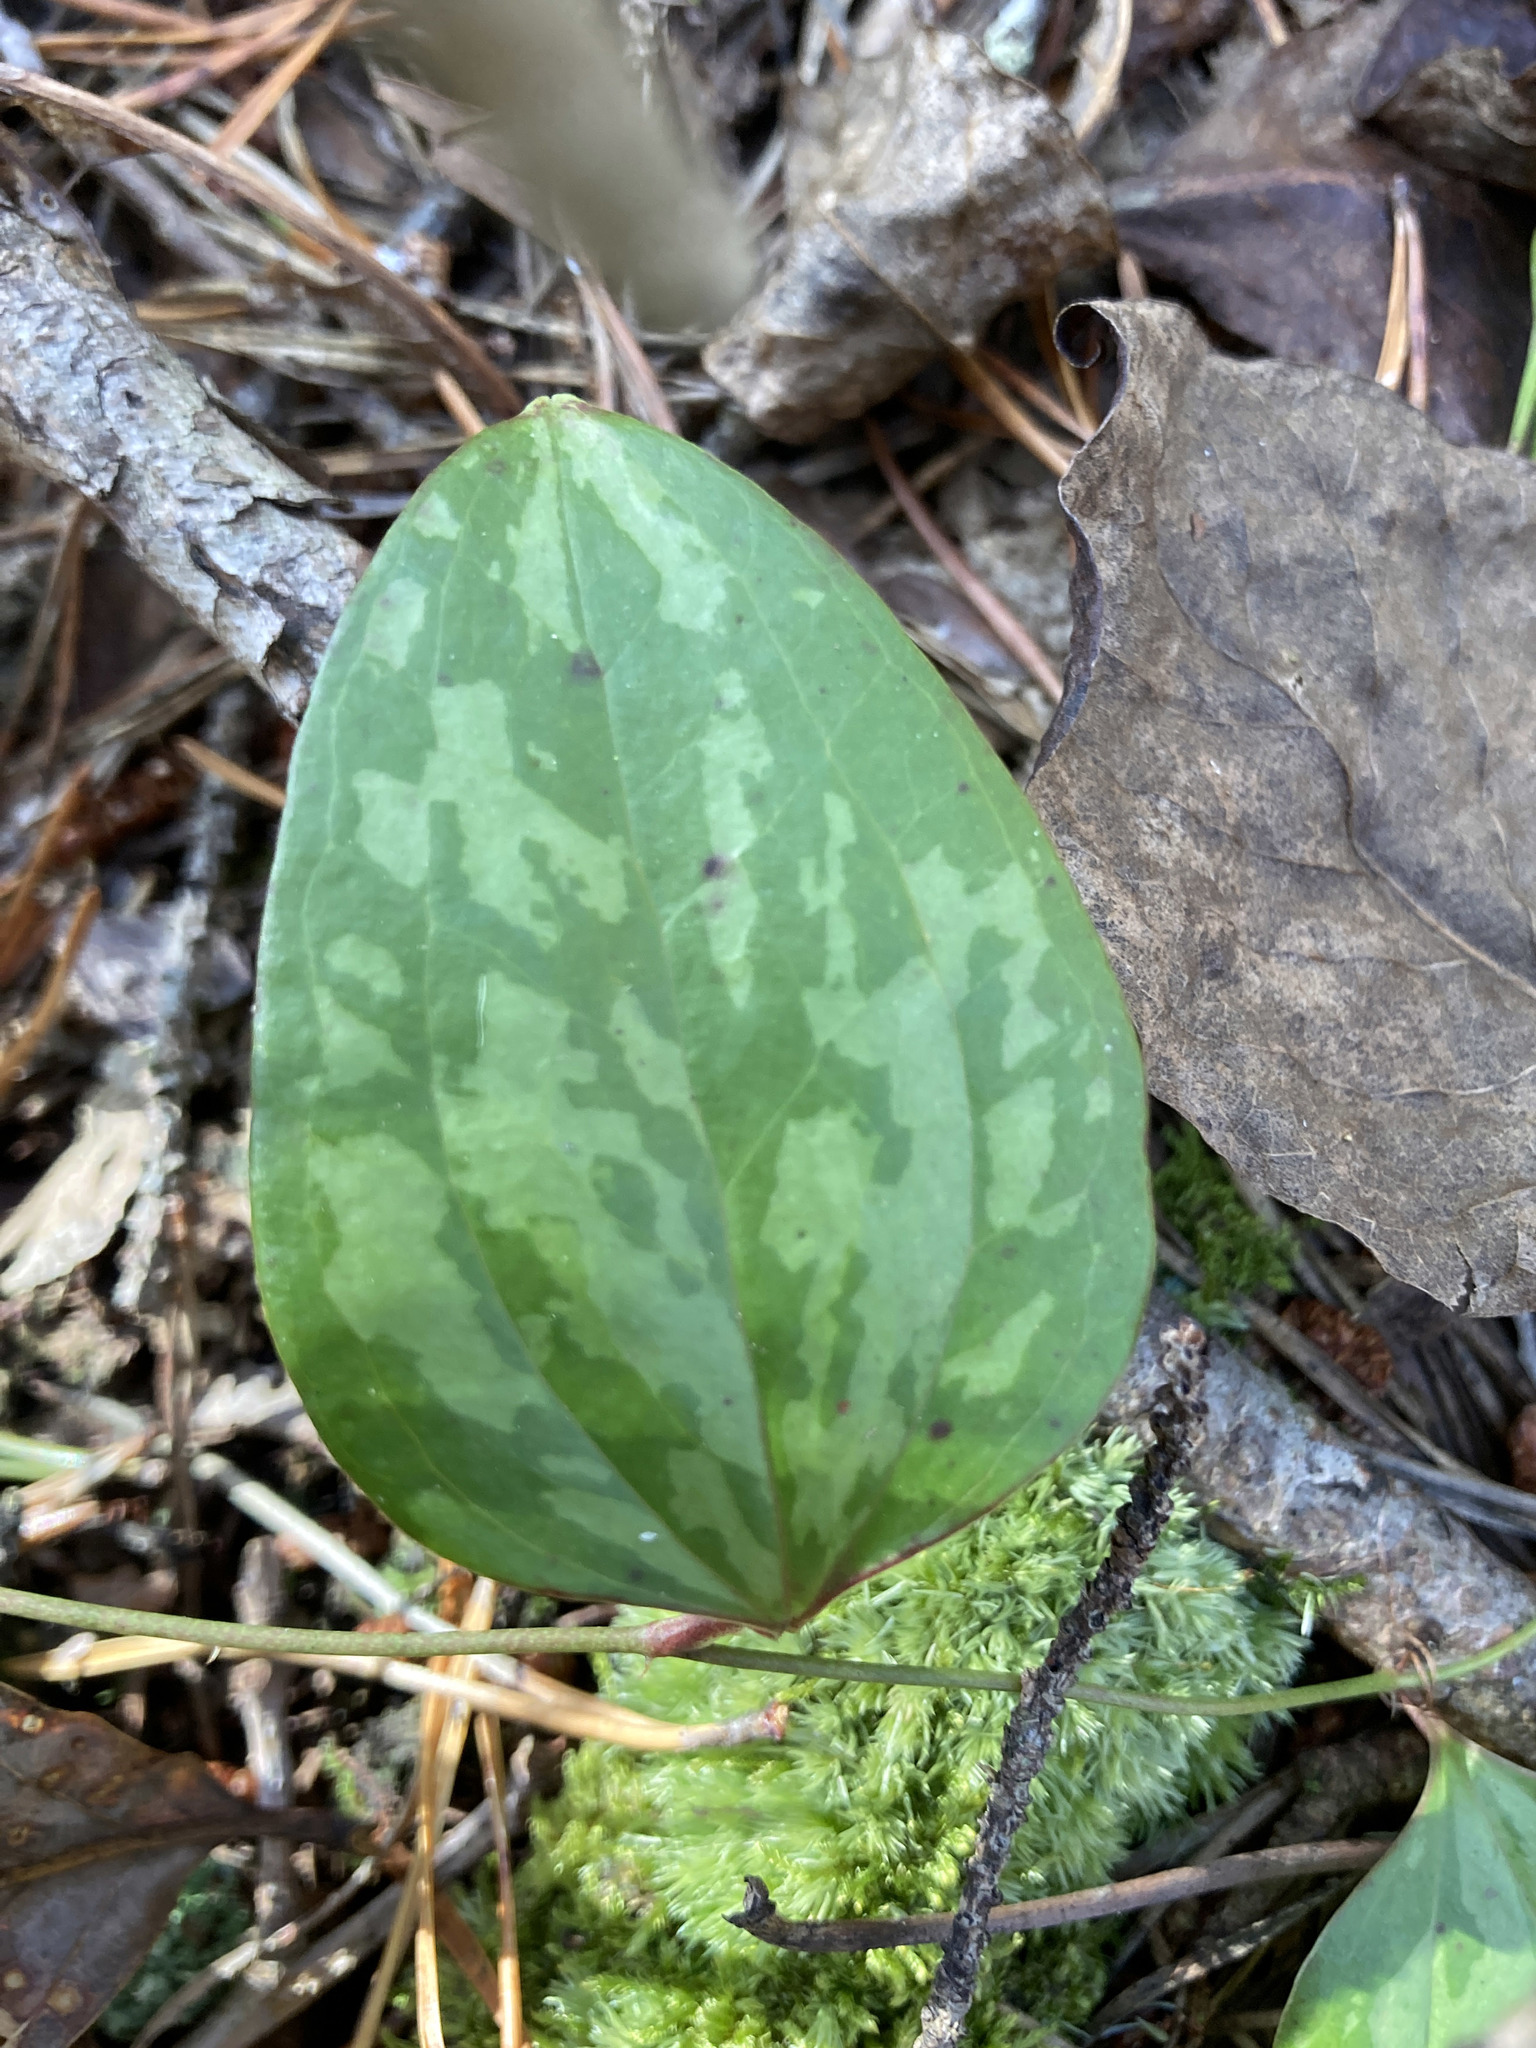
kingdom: Plantae
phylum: Tracheophyta
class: Liliopsida
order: Liliales
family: Smilacaceae
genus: Smilax
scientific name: Smilax glauca
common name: Cat greenbrier
